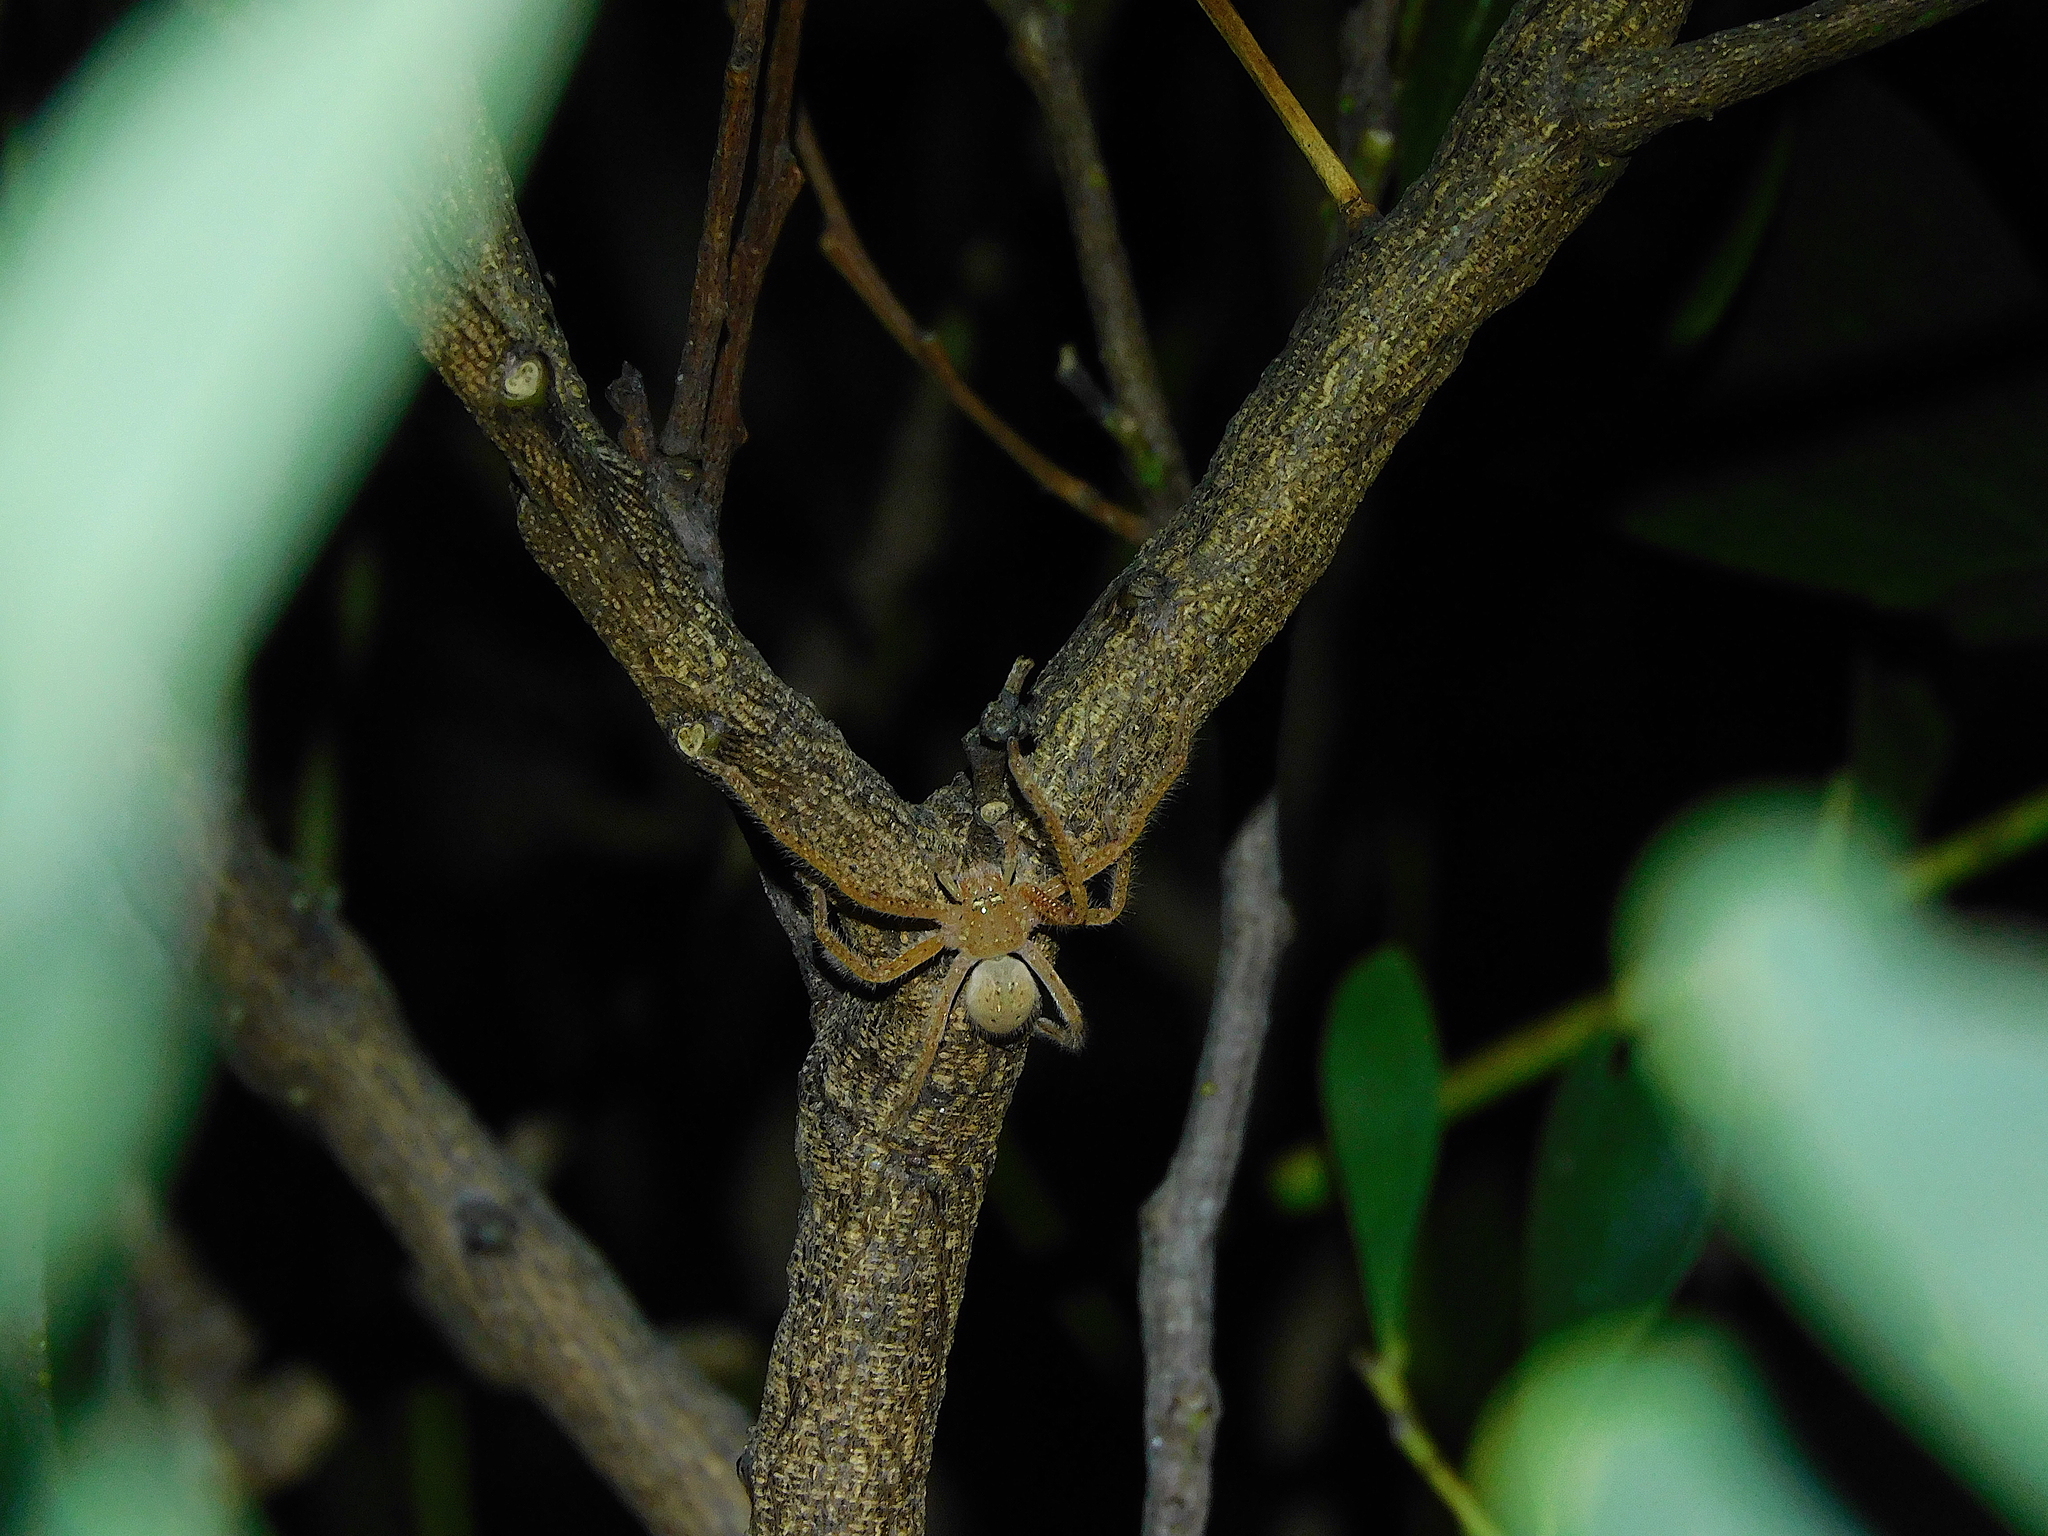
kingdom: Animalia
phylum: Arthropoda
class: Arachnida
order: Araneae
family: Sparassidae
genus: Neosparassus
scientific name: Neosparassus diana
